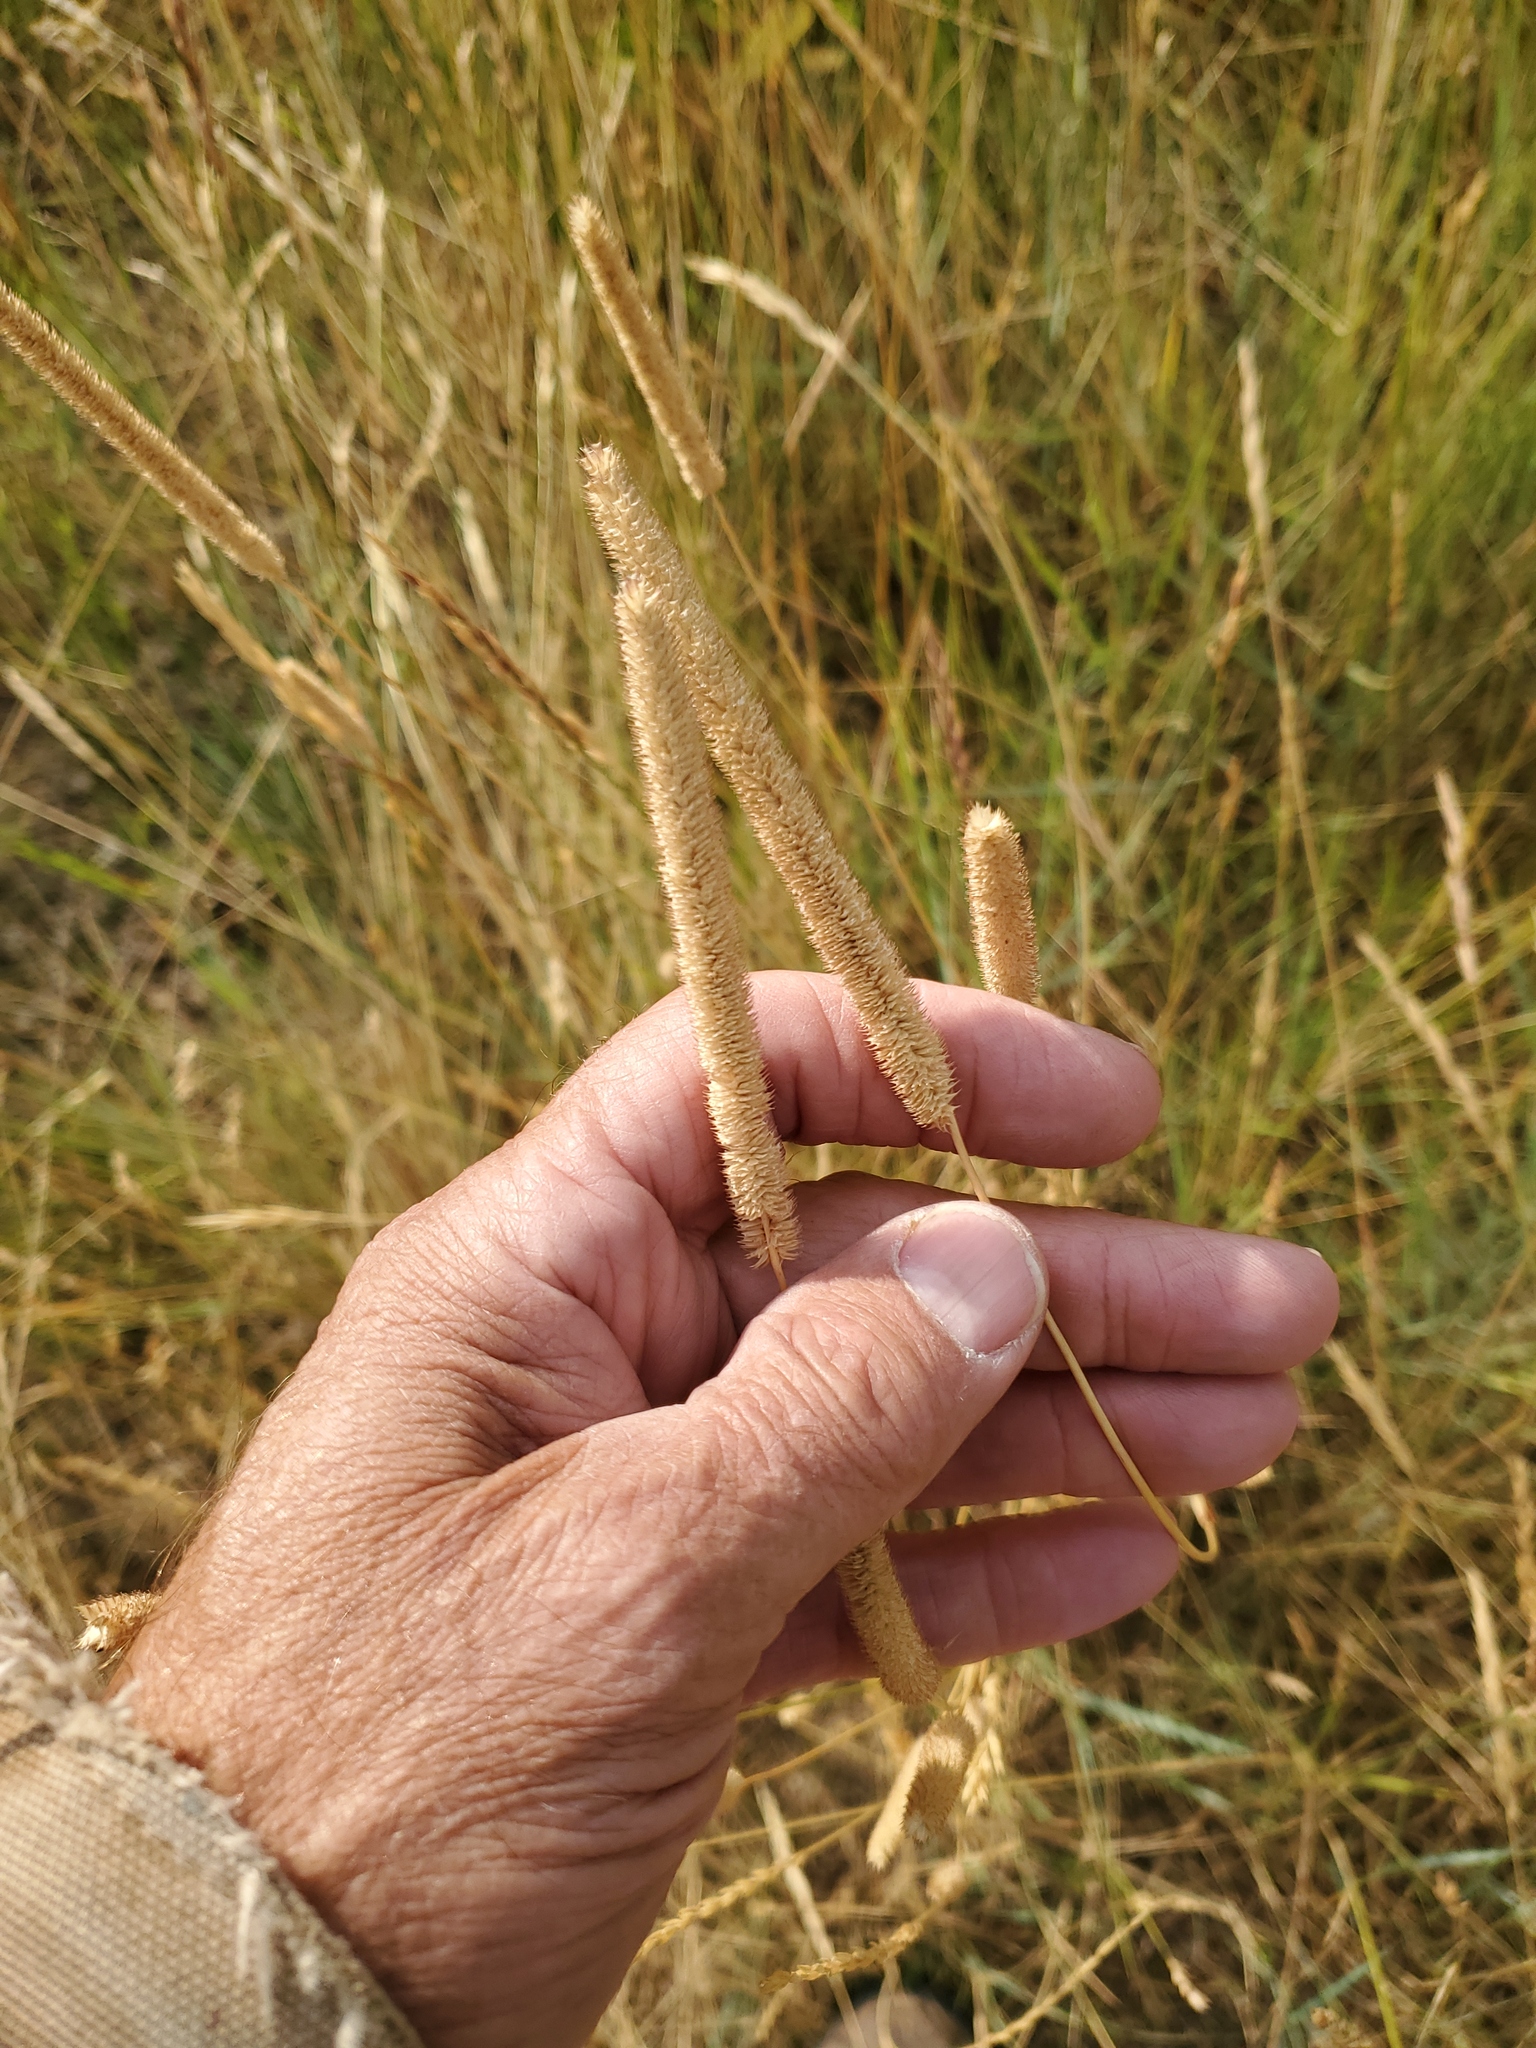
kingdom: Plantae
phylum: Tracheophyta
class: Liliopsida
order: Poales
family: Poaceae
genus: Phleum
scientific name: Phleum pratense
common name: Timothy grass
